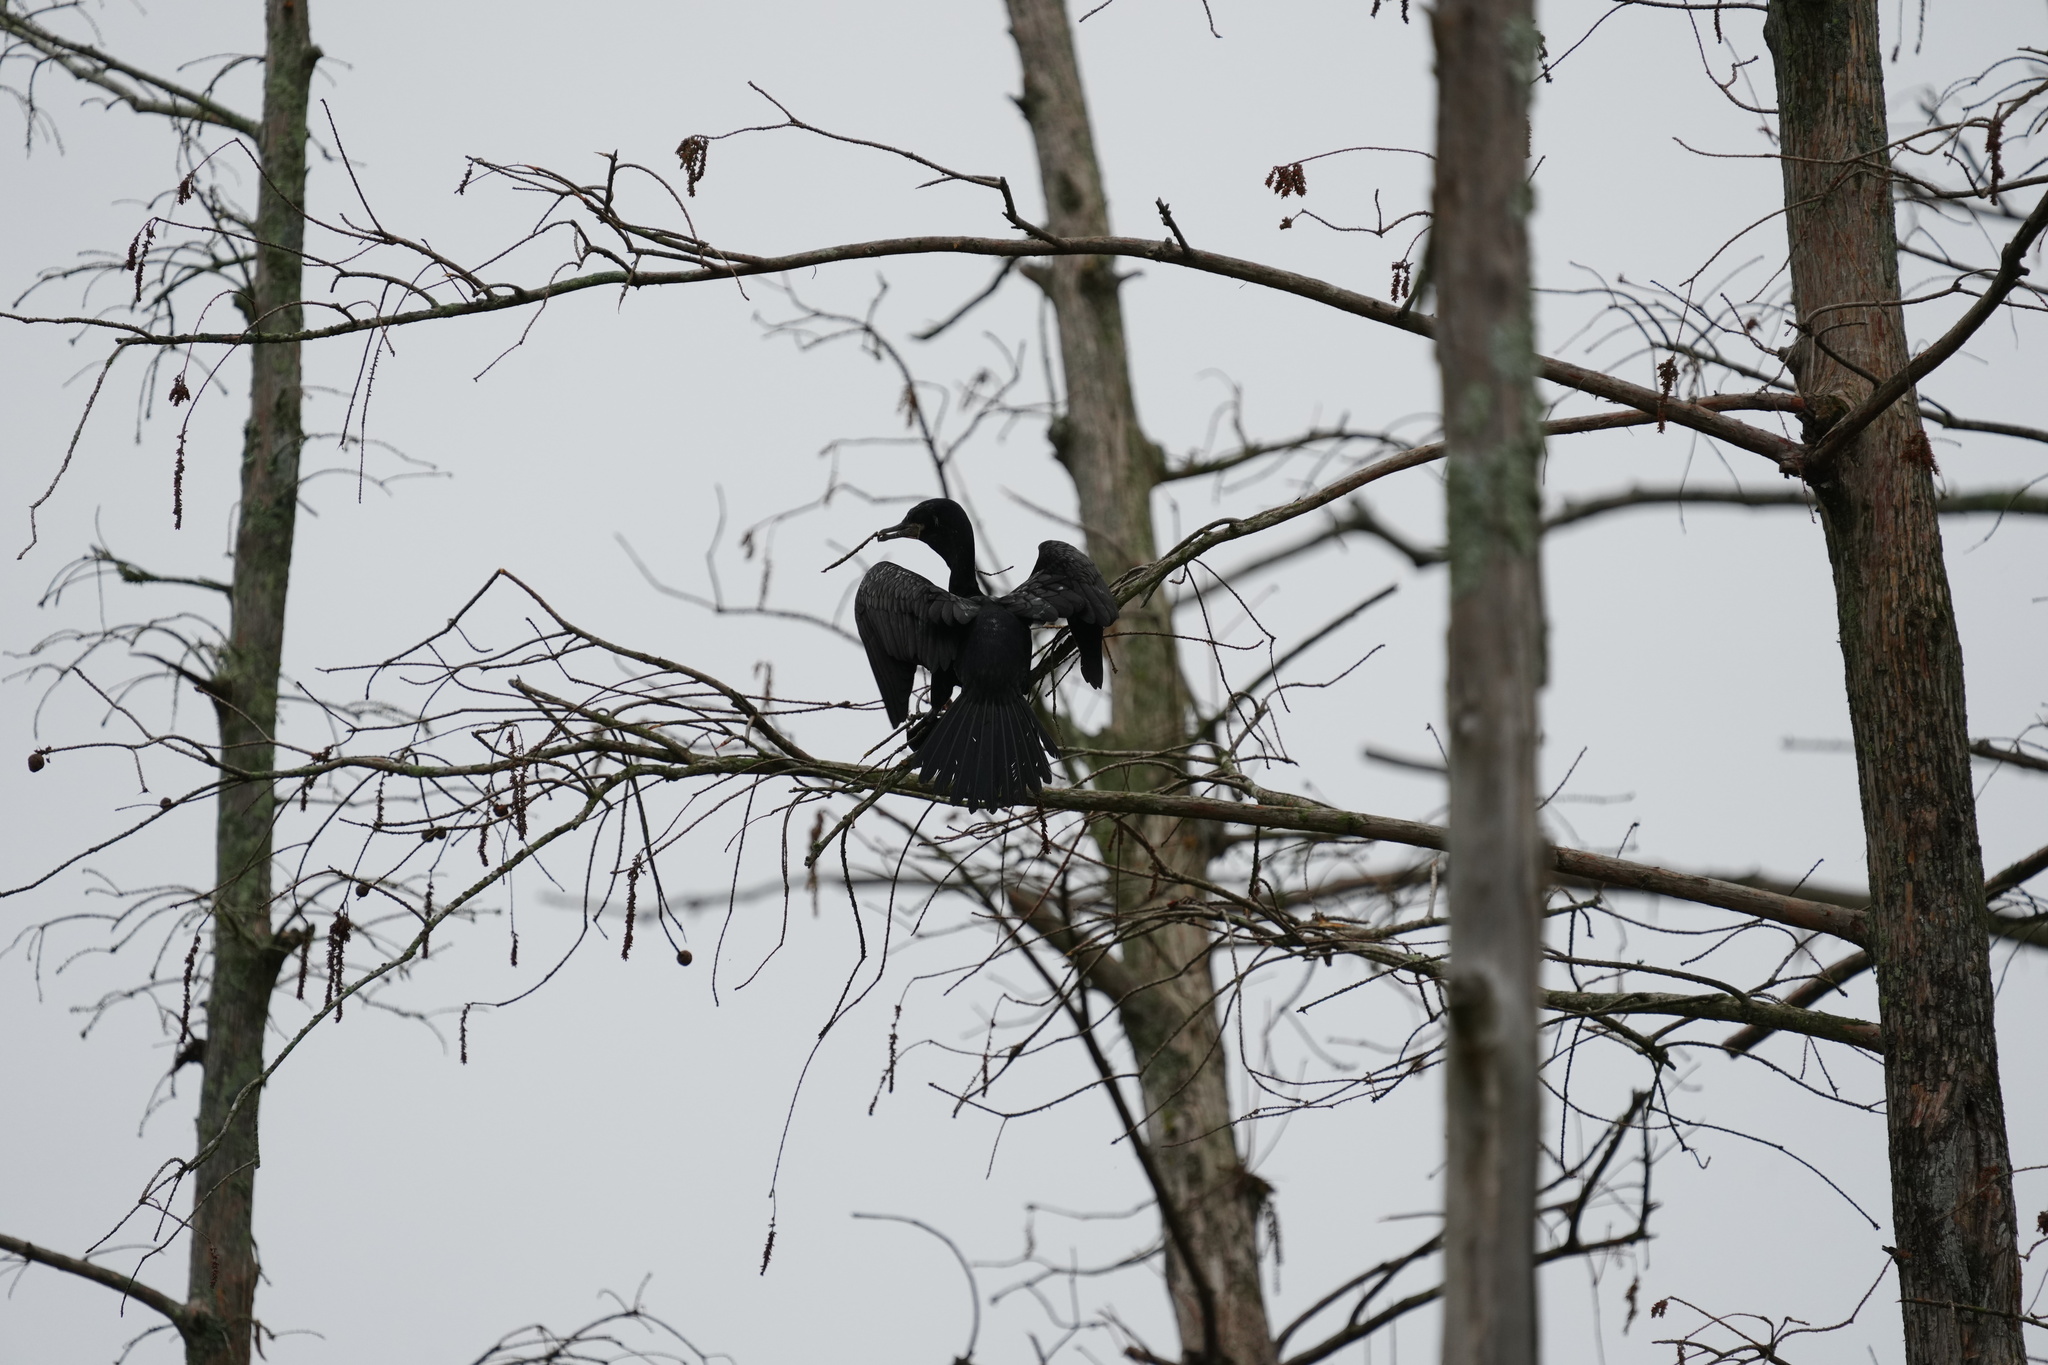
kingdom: Animalia
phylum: Chordata
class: Aves
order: Suliformes
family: Phalacrocoracidae
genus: Phalacrocorax
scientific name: Phalacrocorax brasilianus
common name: Neotropic cormorant
